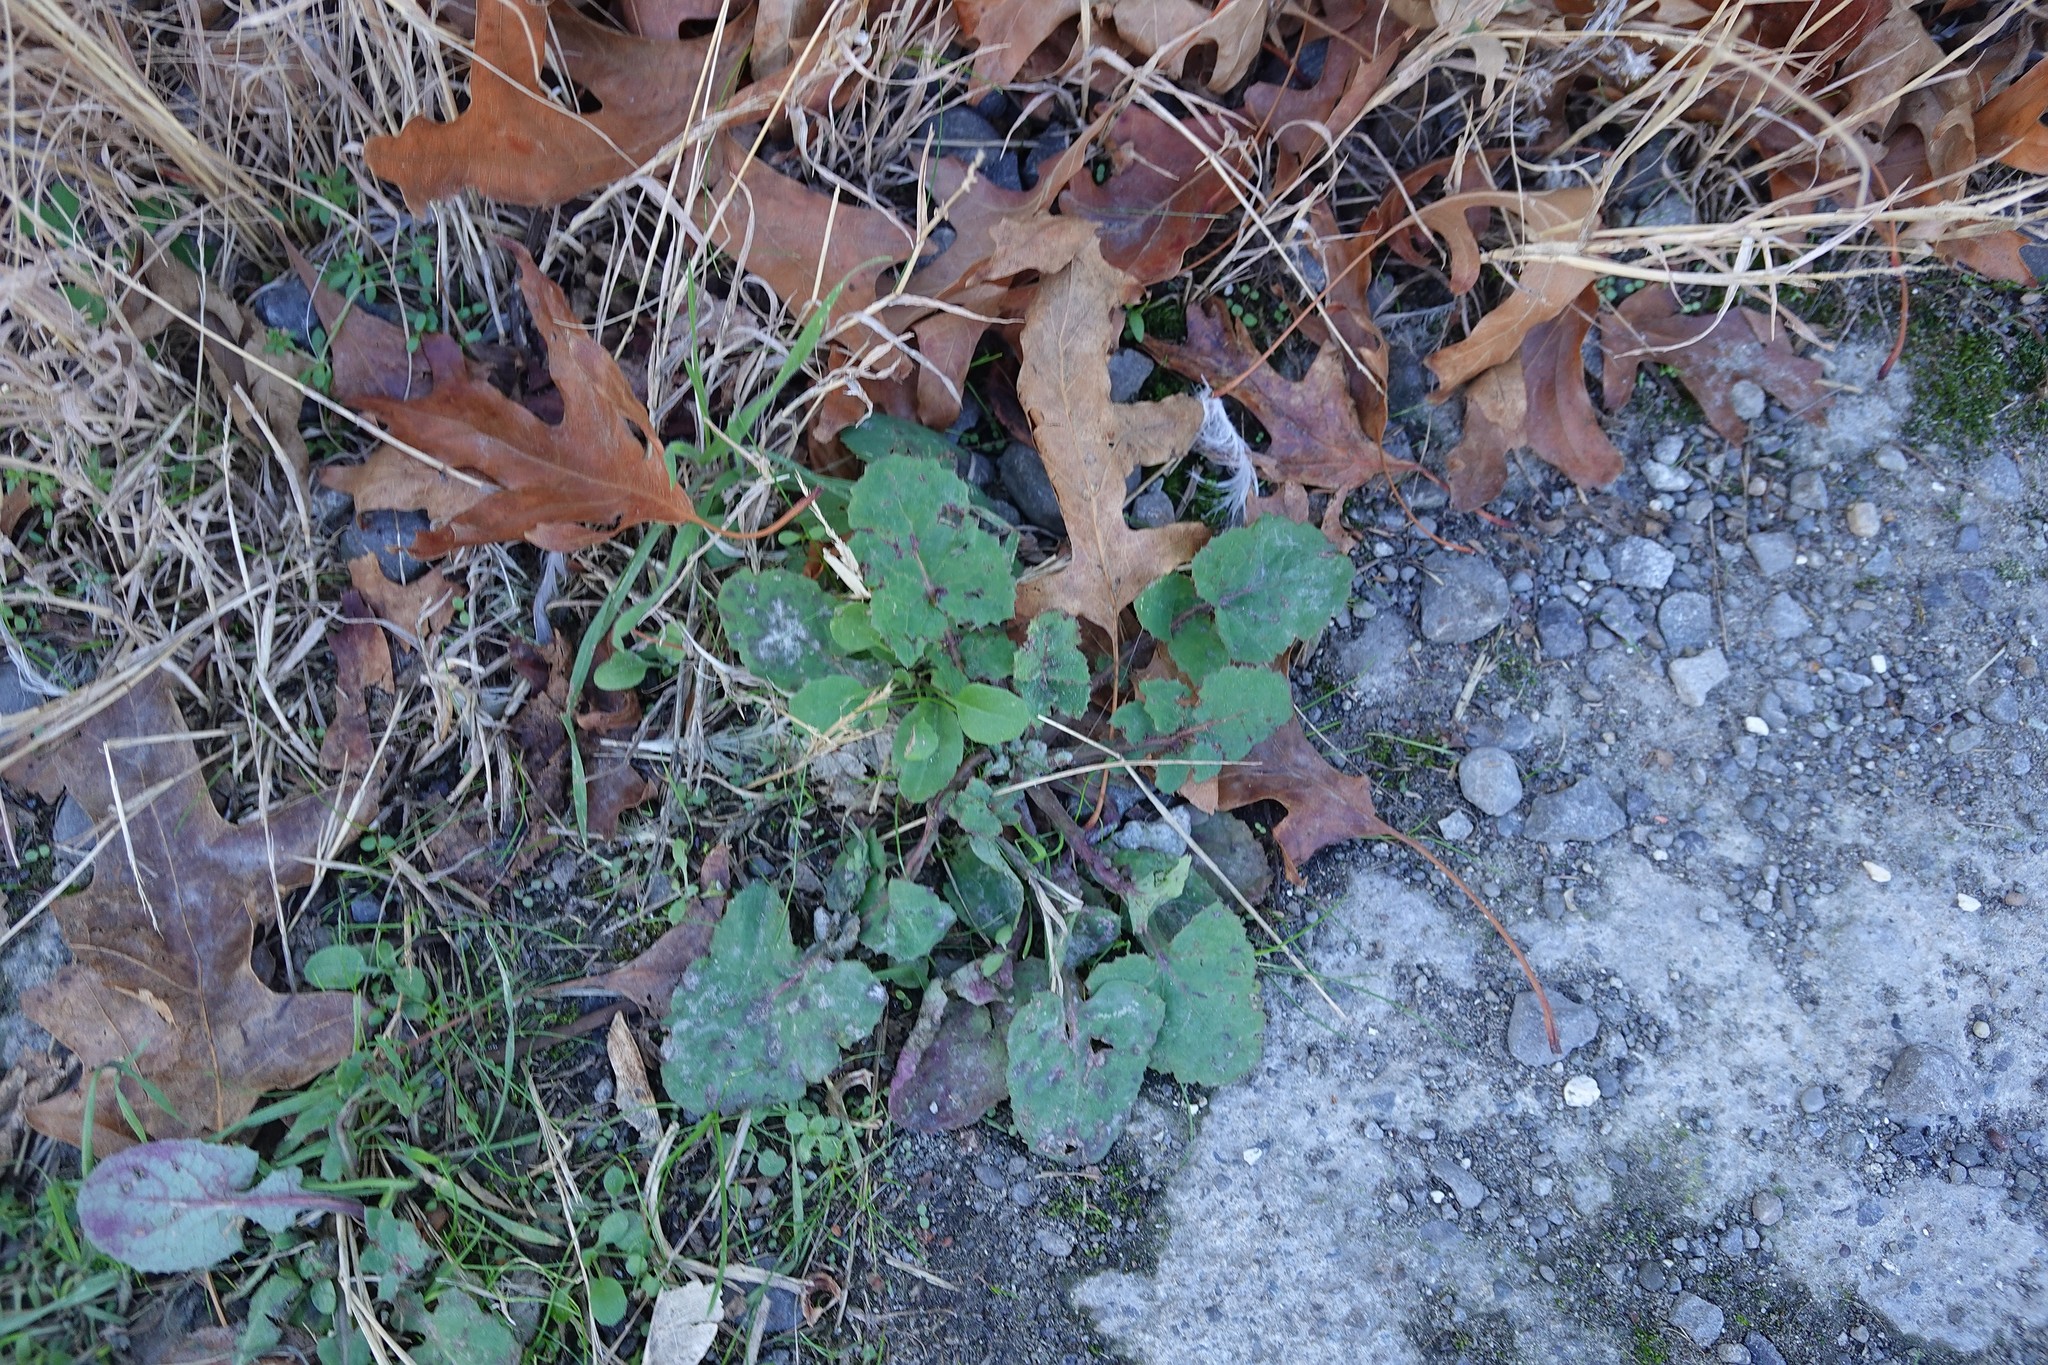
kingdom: Plantae
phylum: Tracheophyta
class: Magnoliopsida
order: Asterales
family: Asteraceae
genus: Sonchus
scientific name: Sonchus oleraceus
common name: Common sowthistle
